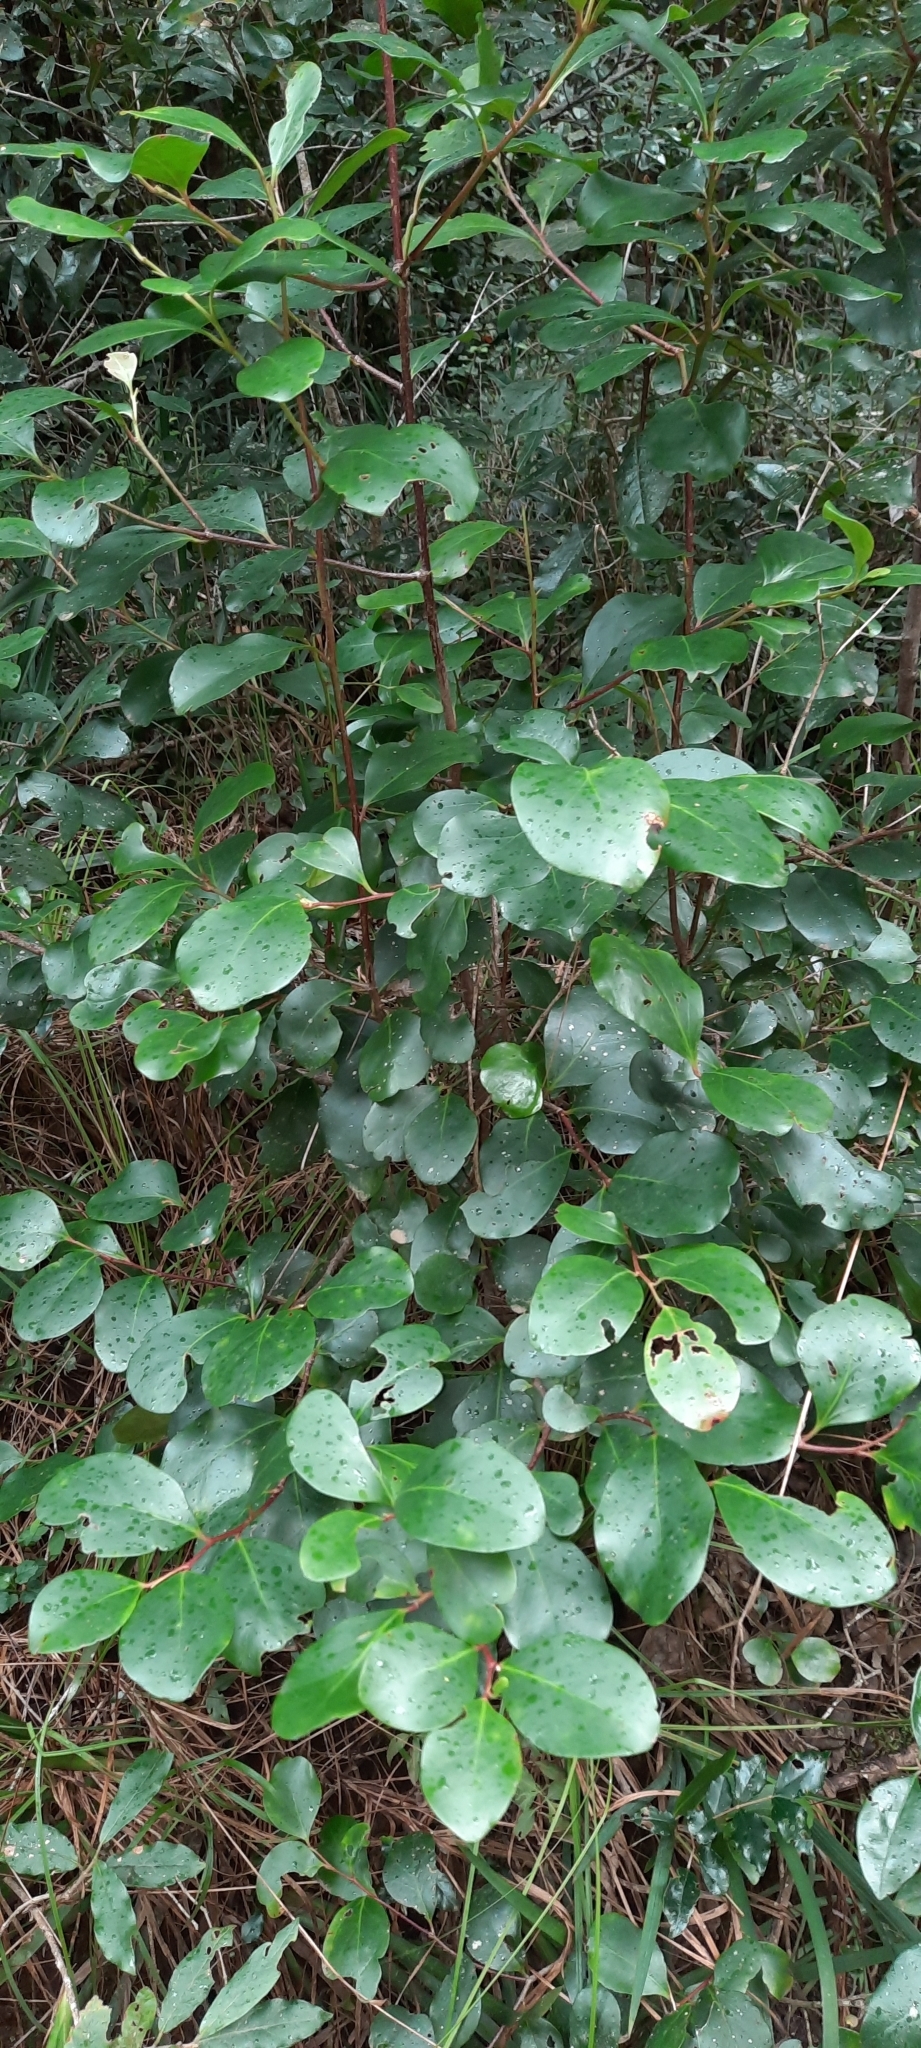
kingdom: Plantae
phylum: Tracheophyta
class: Magnoliopsida
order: Celastrales
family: Celastraceae
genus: Pterocelastrus
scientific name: Pterocelastrus tricuspidatus
